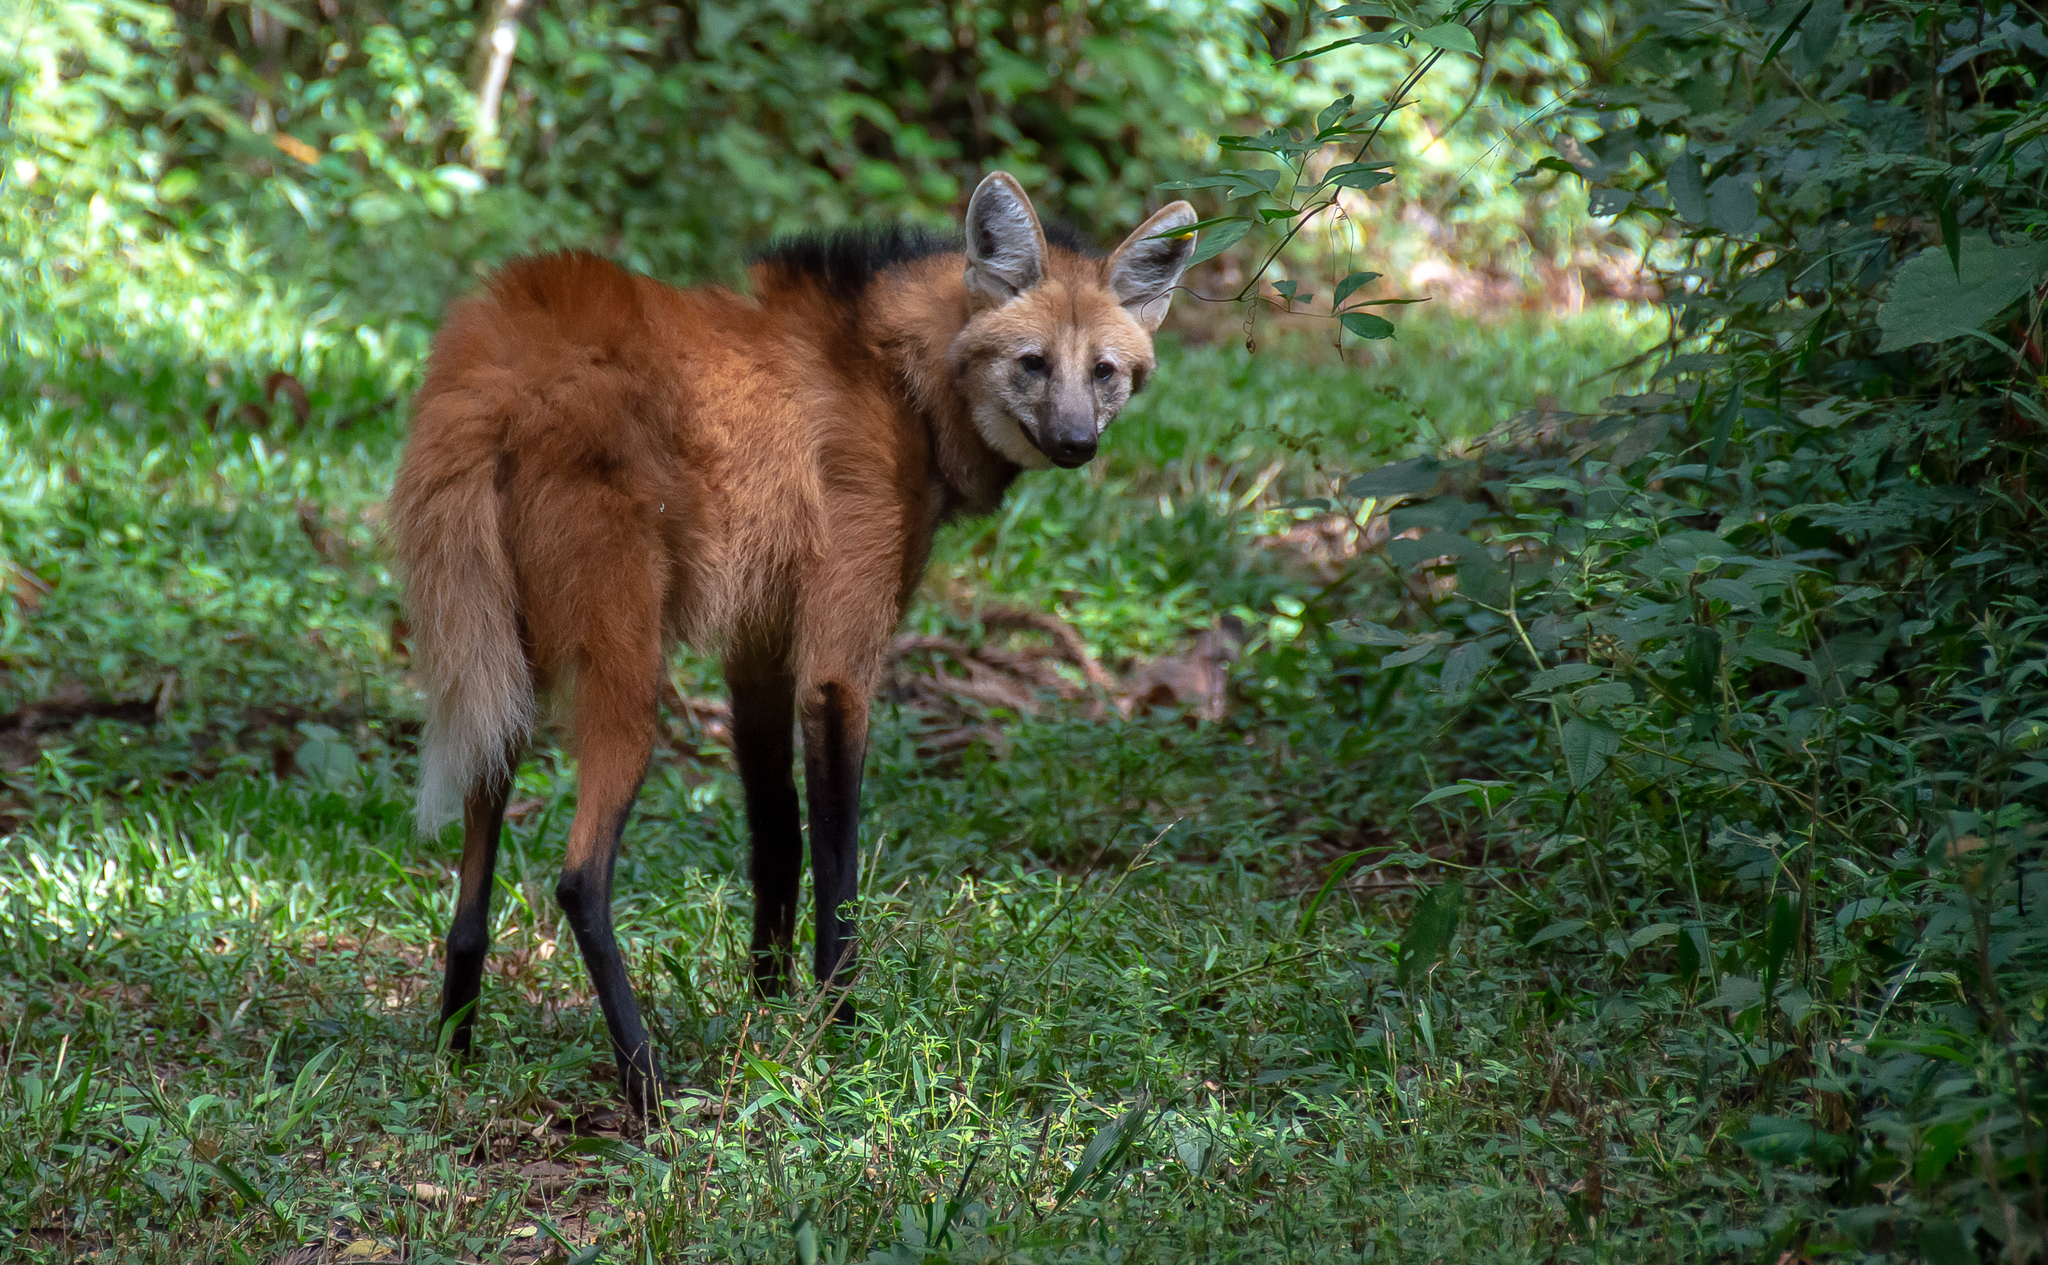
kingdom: Animalia
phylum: Chordata
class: Mammalia
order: Carnivora
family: Canidae
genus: Chrysocyon
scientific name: Chrysocyon brachyurus
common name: Maned wolf
